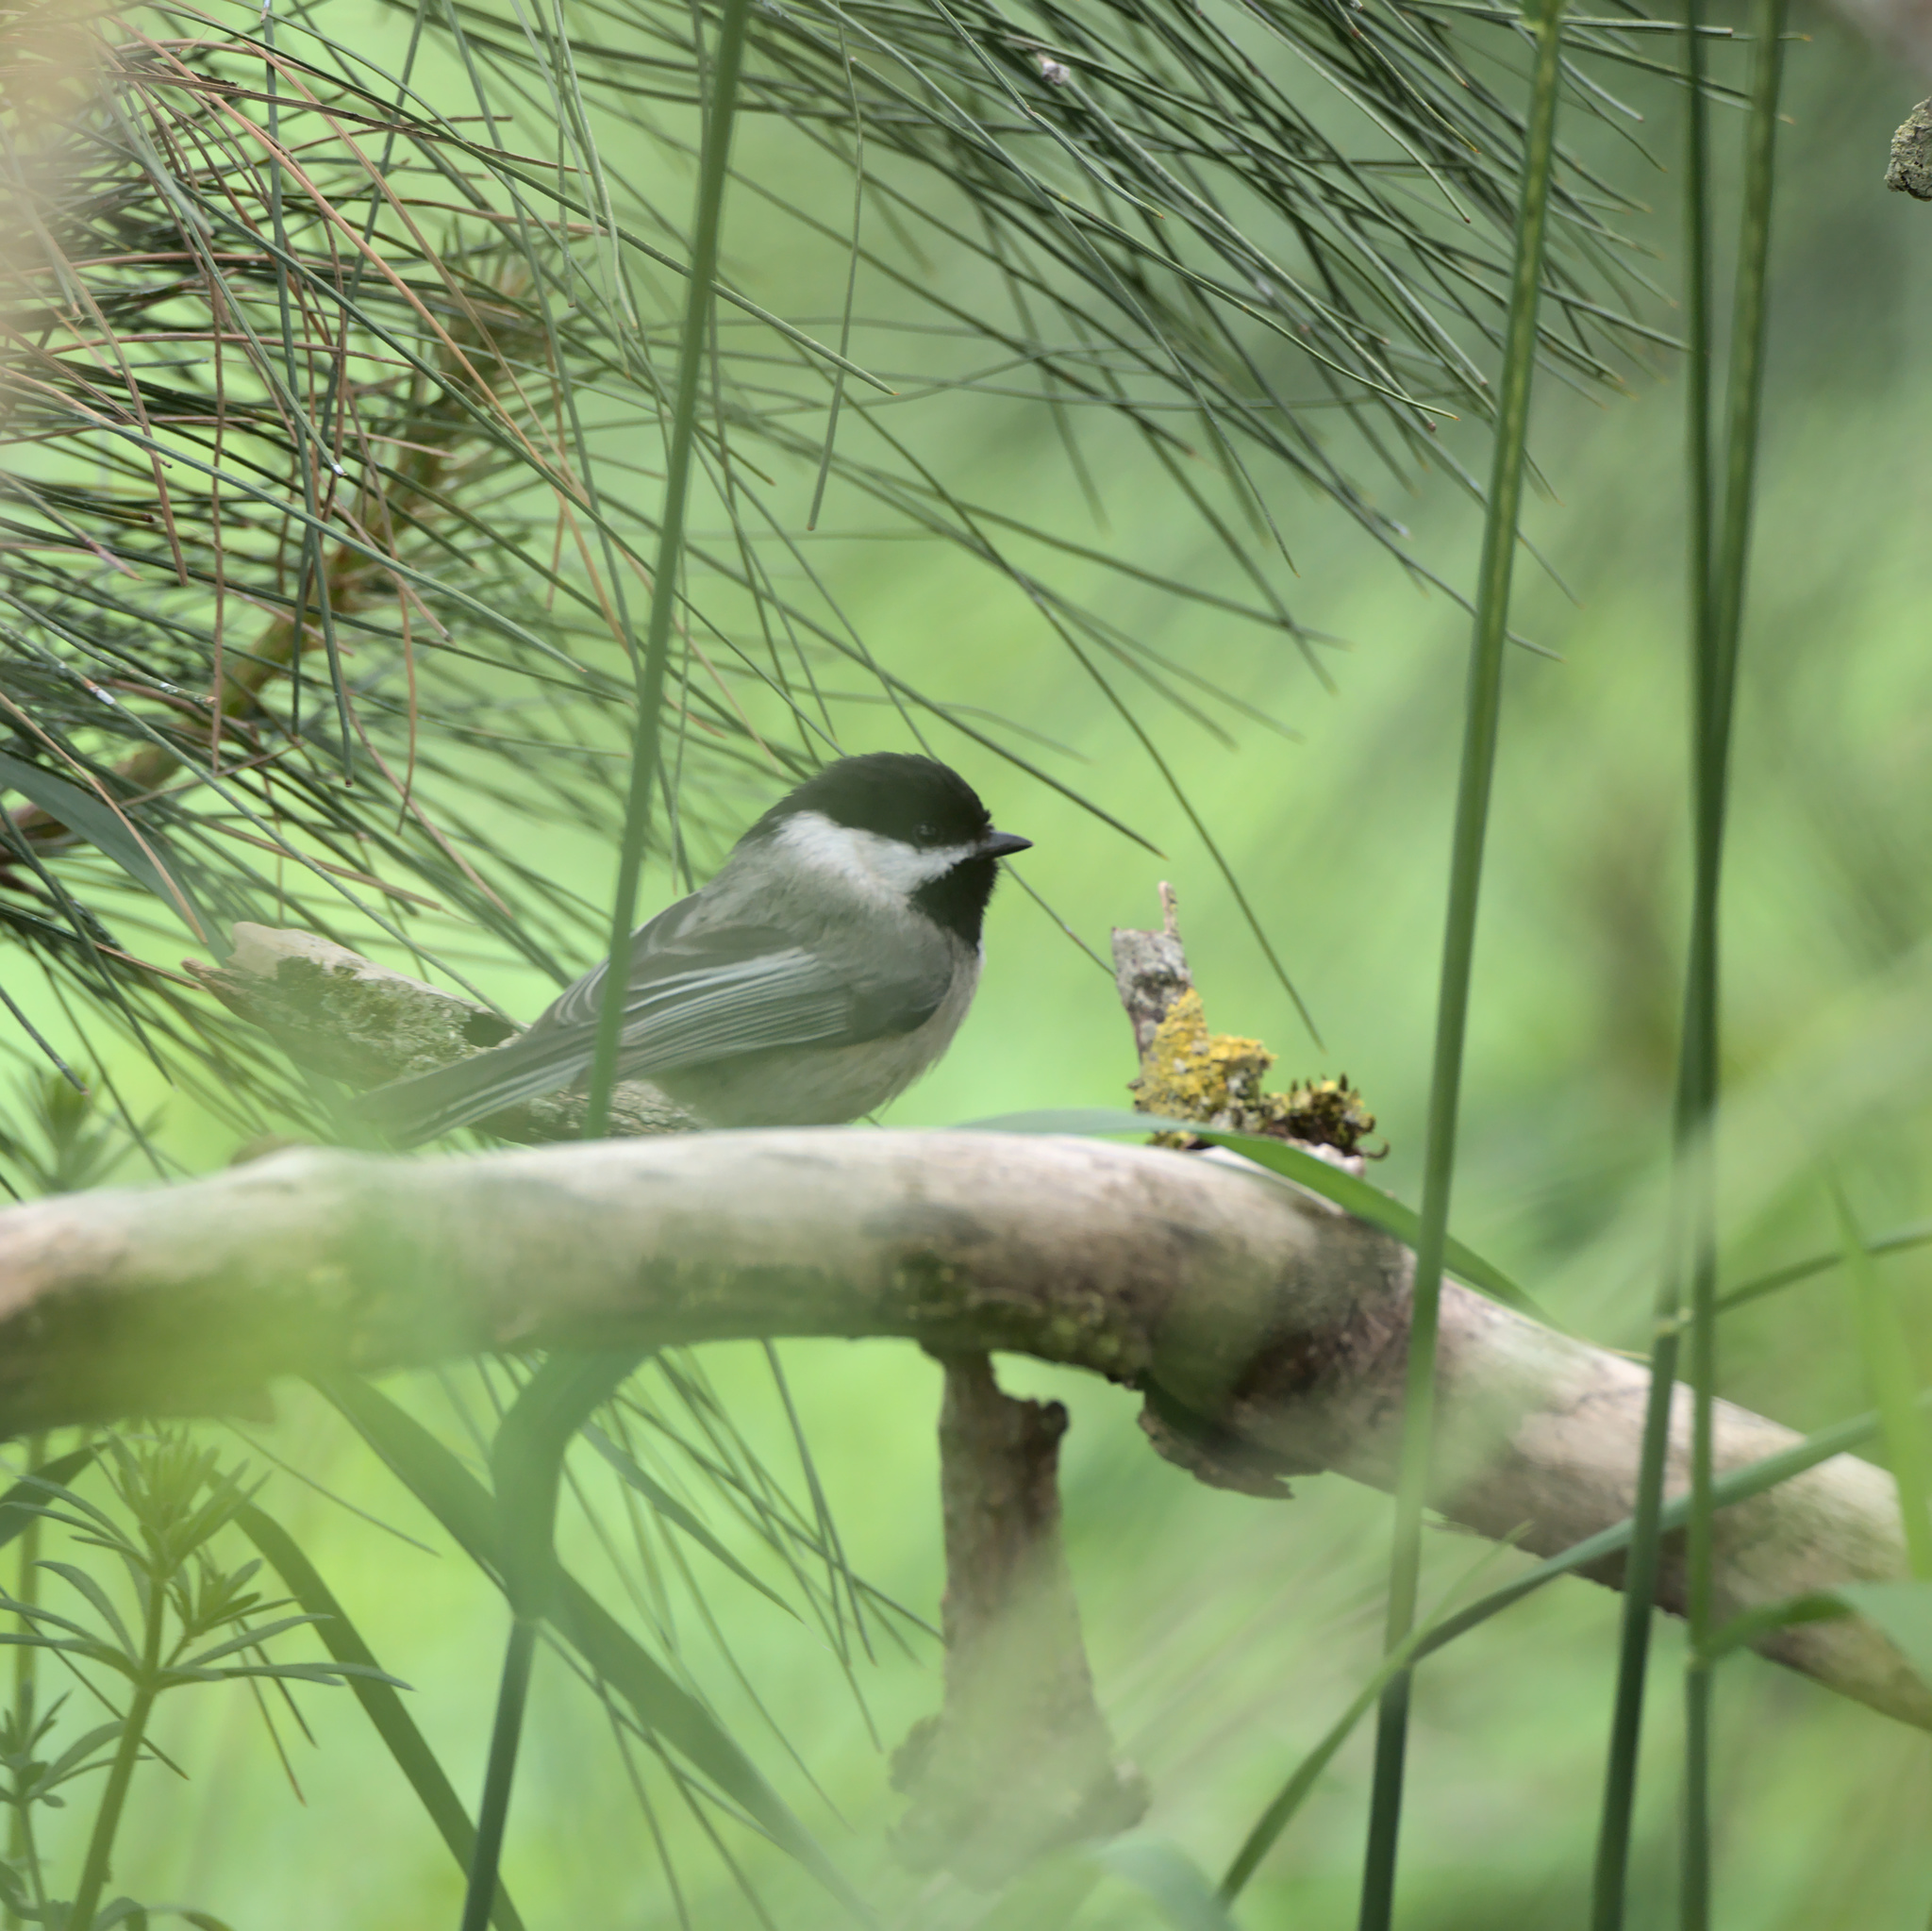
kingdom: Animalia
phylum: Chordata
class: Aves
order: Passeriformes
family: Paridae
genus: Poecile
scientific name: Poecile atricapillus
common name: Black-capped chickadee
